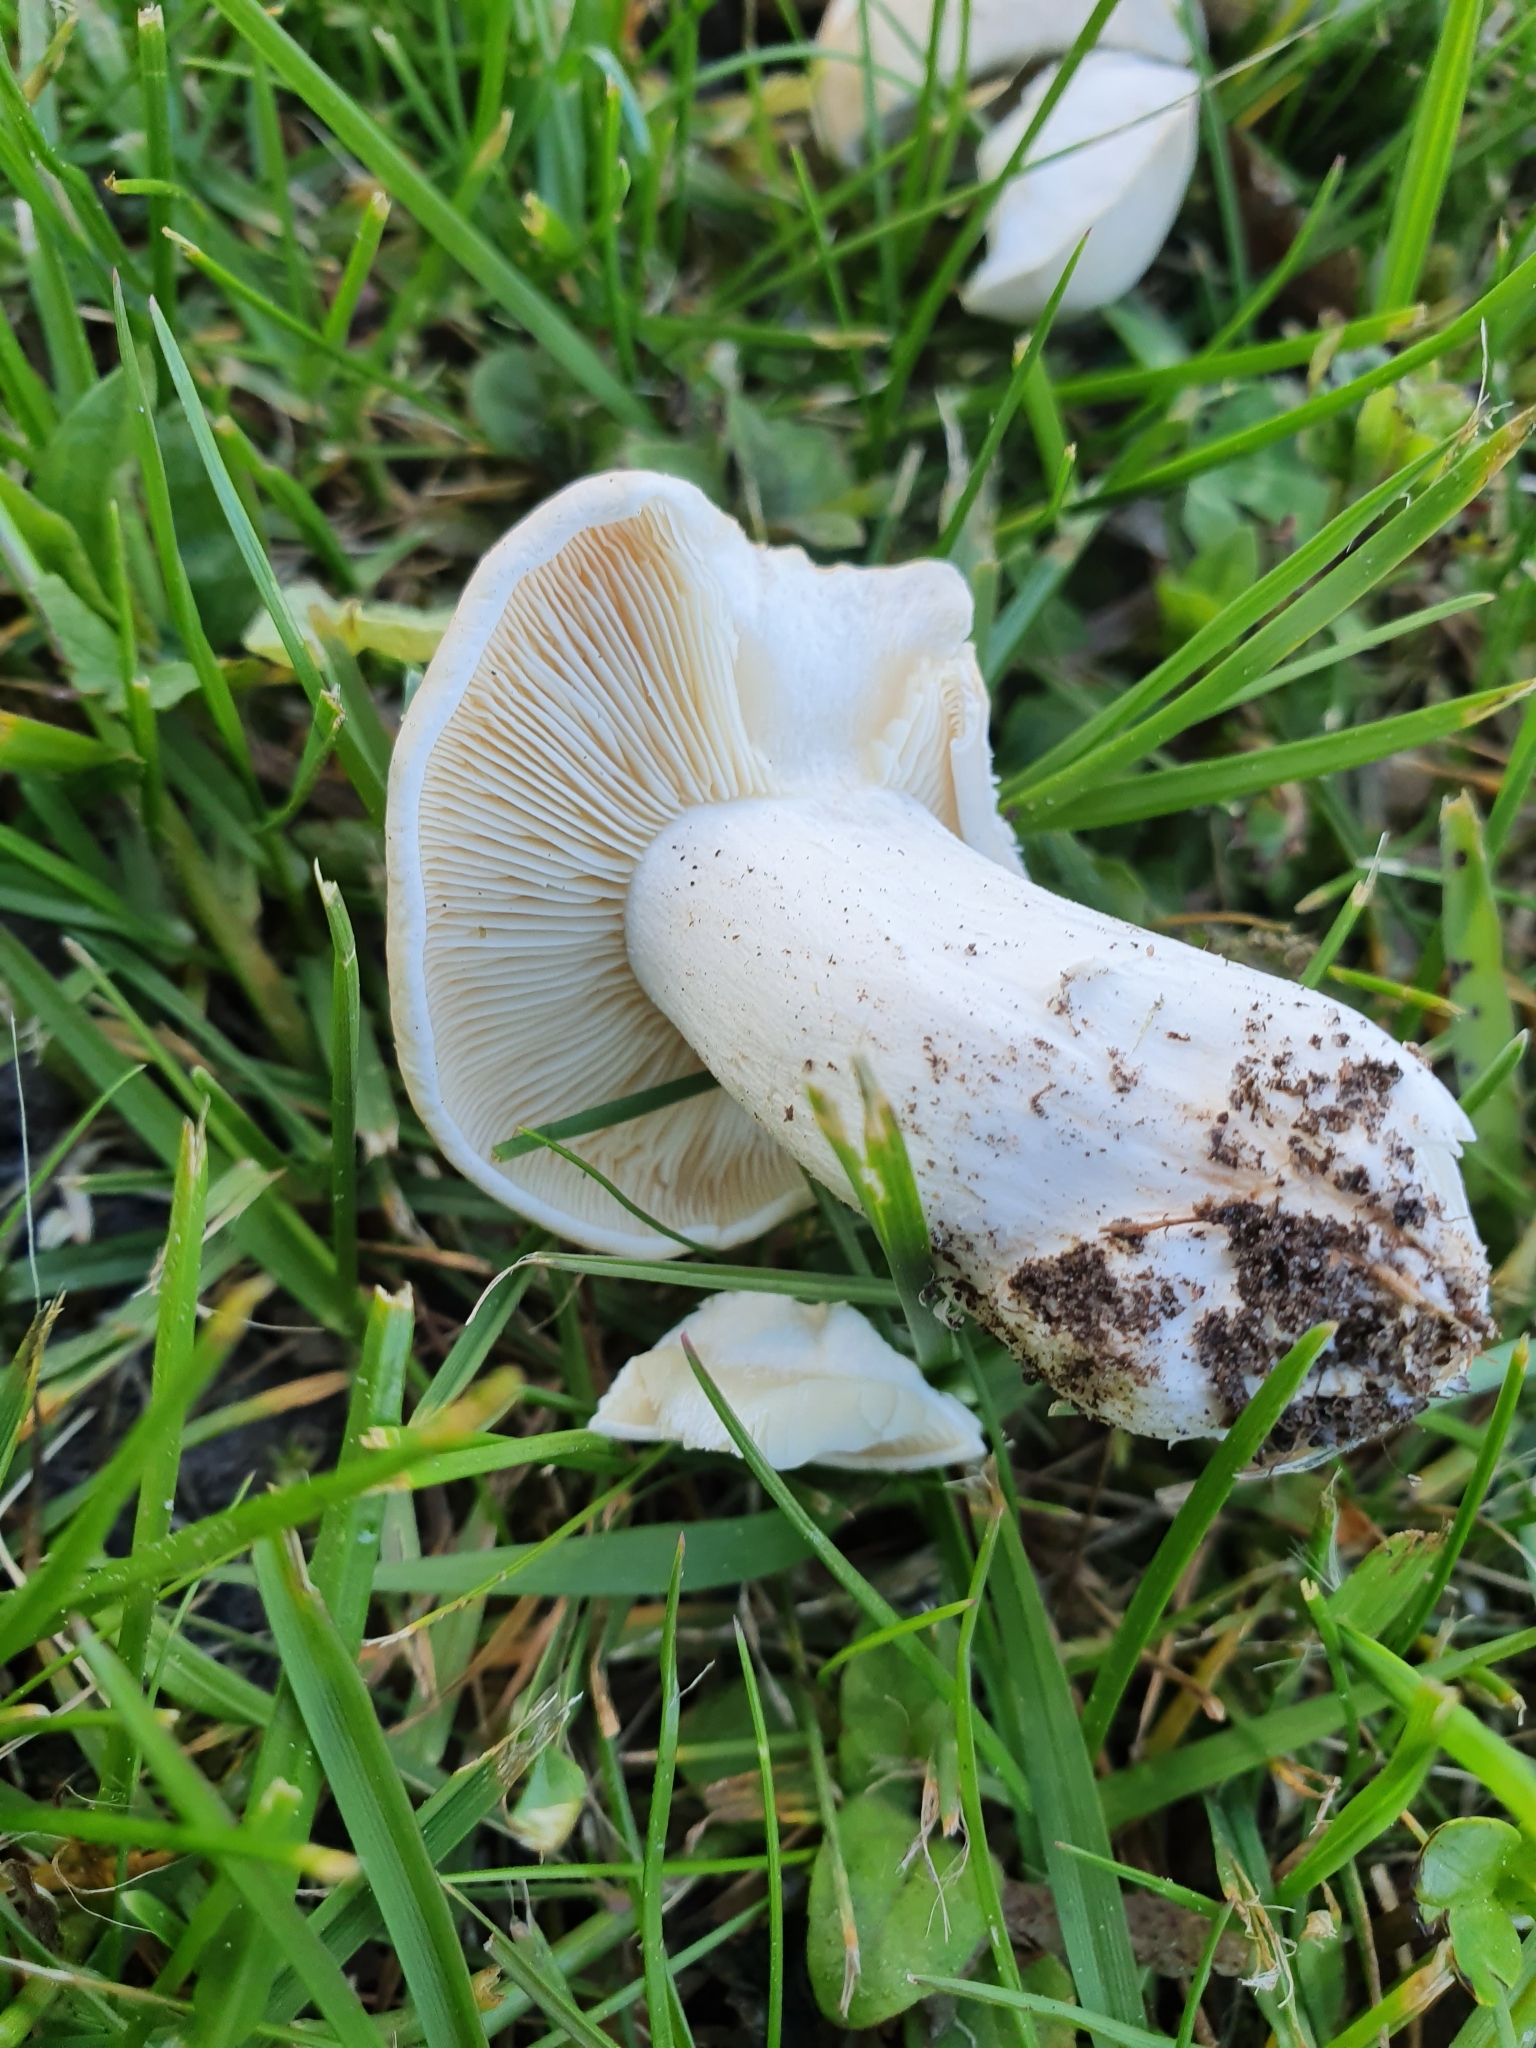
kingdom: Fungi
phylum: Basidiomycota
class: Agaricomycetes
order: Agaricales
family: Lyophyllaceae
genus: Calocybe
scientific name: Calocybe gambosa
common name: St. george's mushroom
